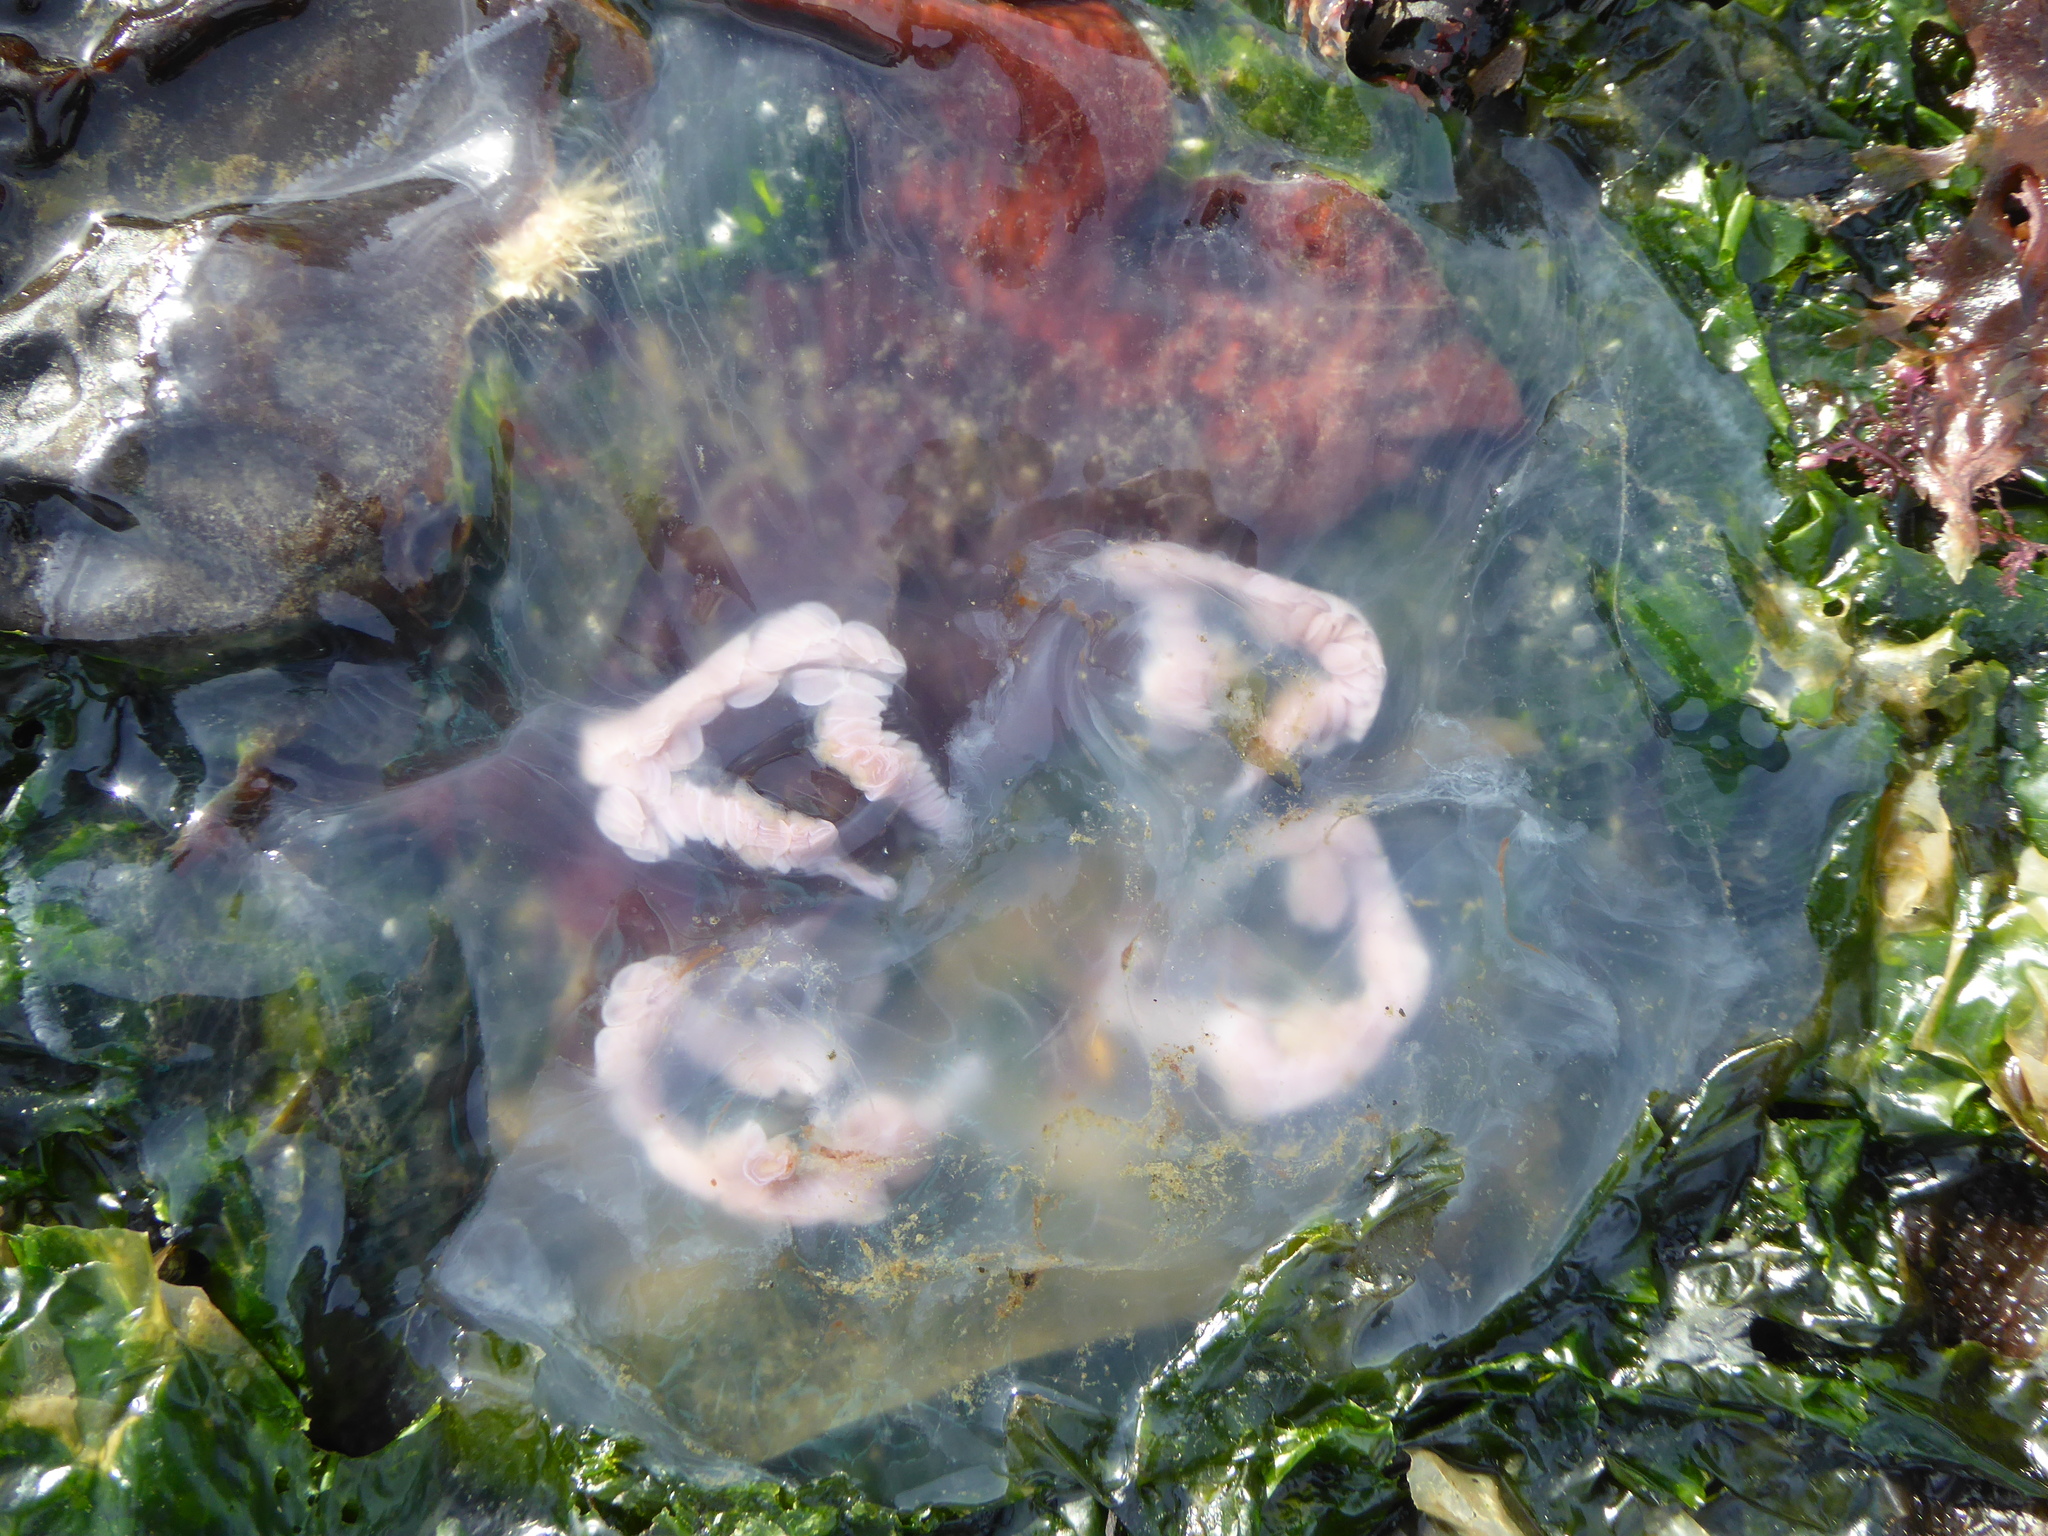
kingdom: Animalia
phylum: Cnidaria
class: Scyphozoa
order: Semaeostomeae
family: Ulmaridae
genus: Aurelia
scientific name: Aurelia labiata
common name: Pacific moon jelly
